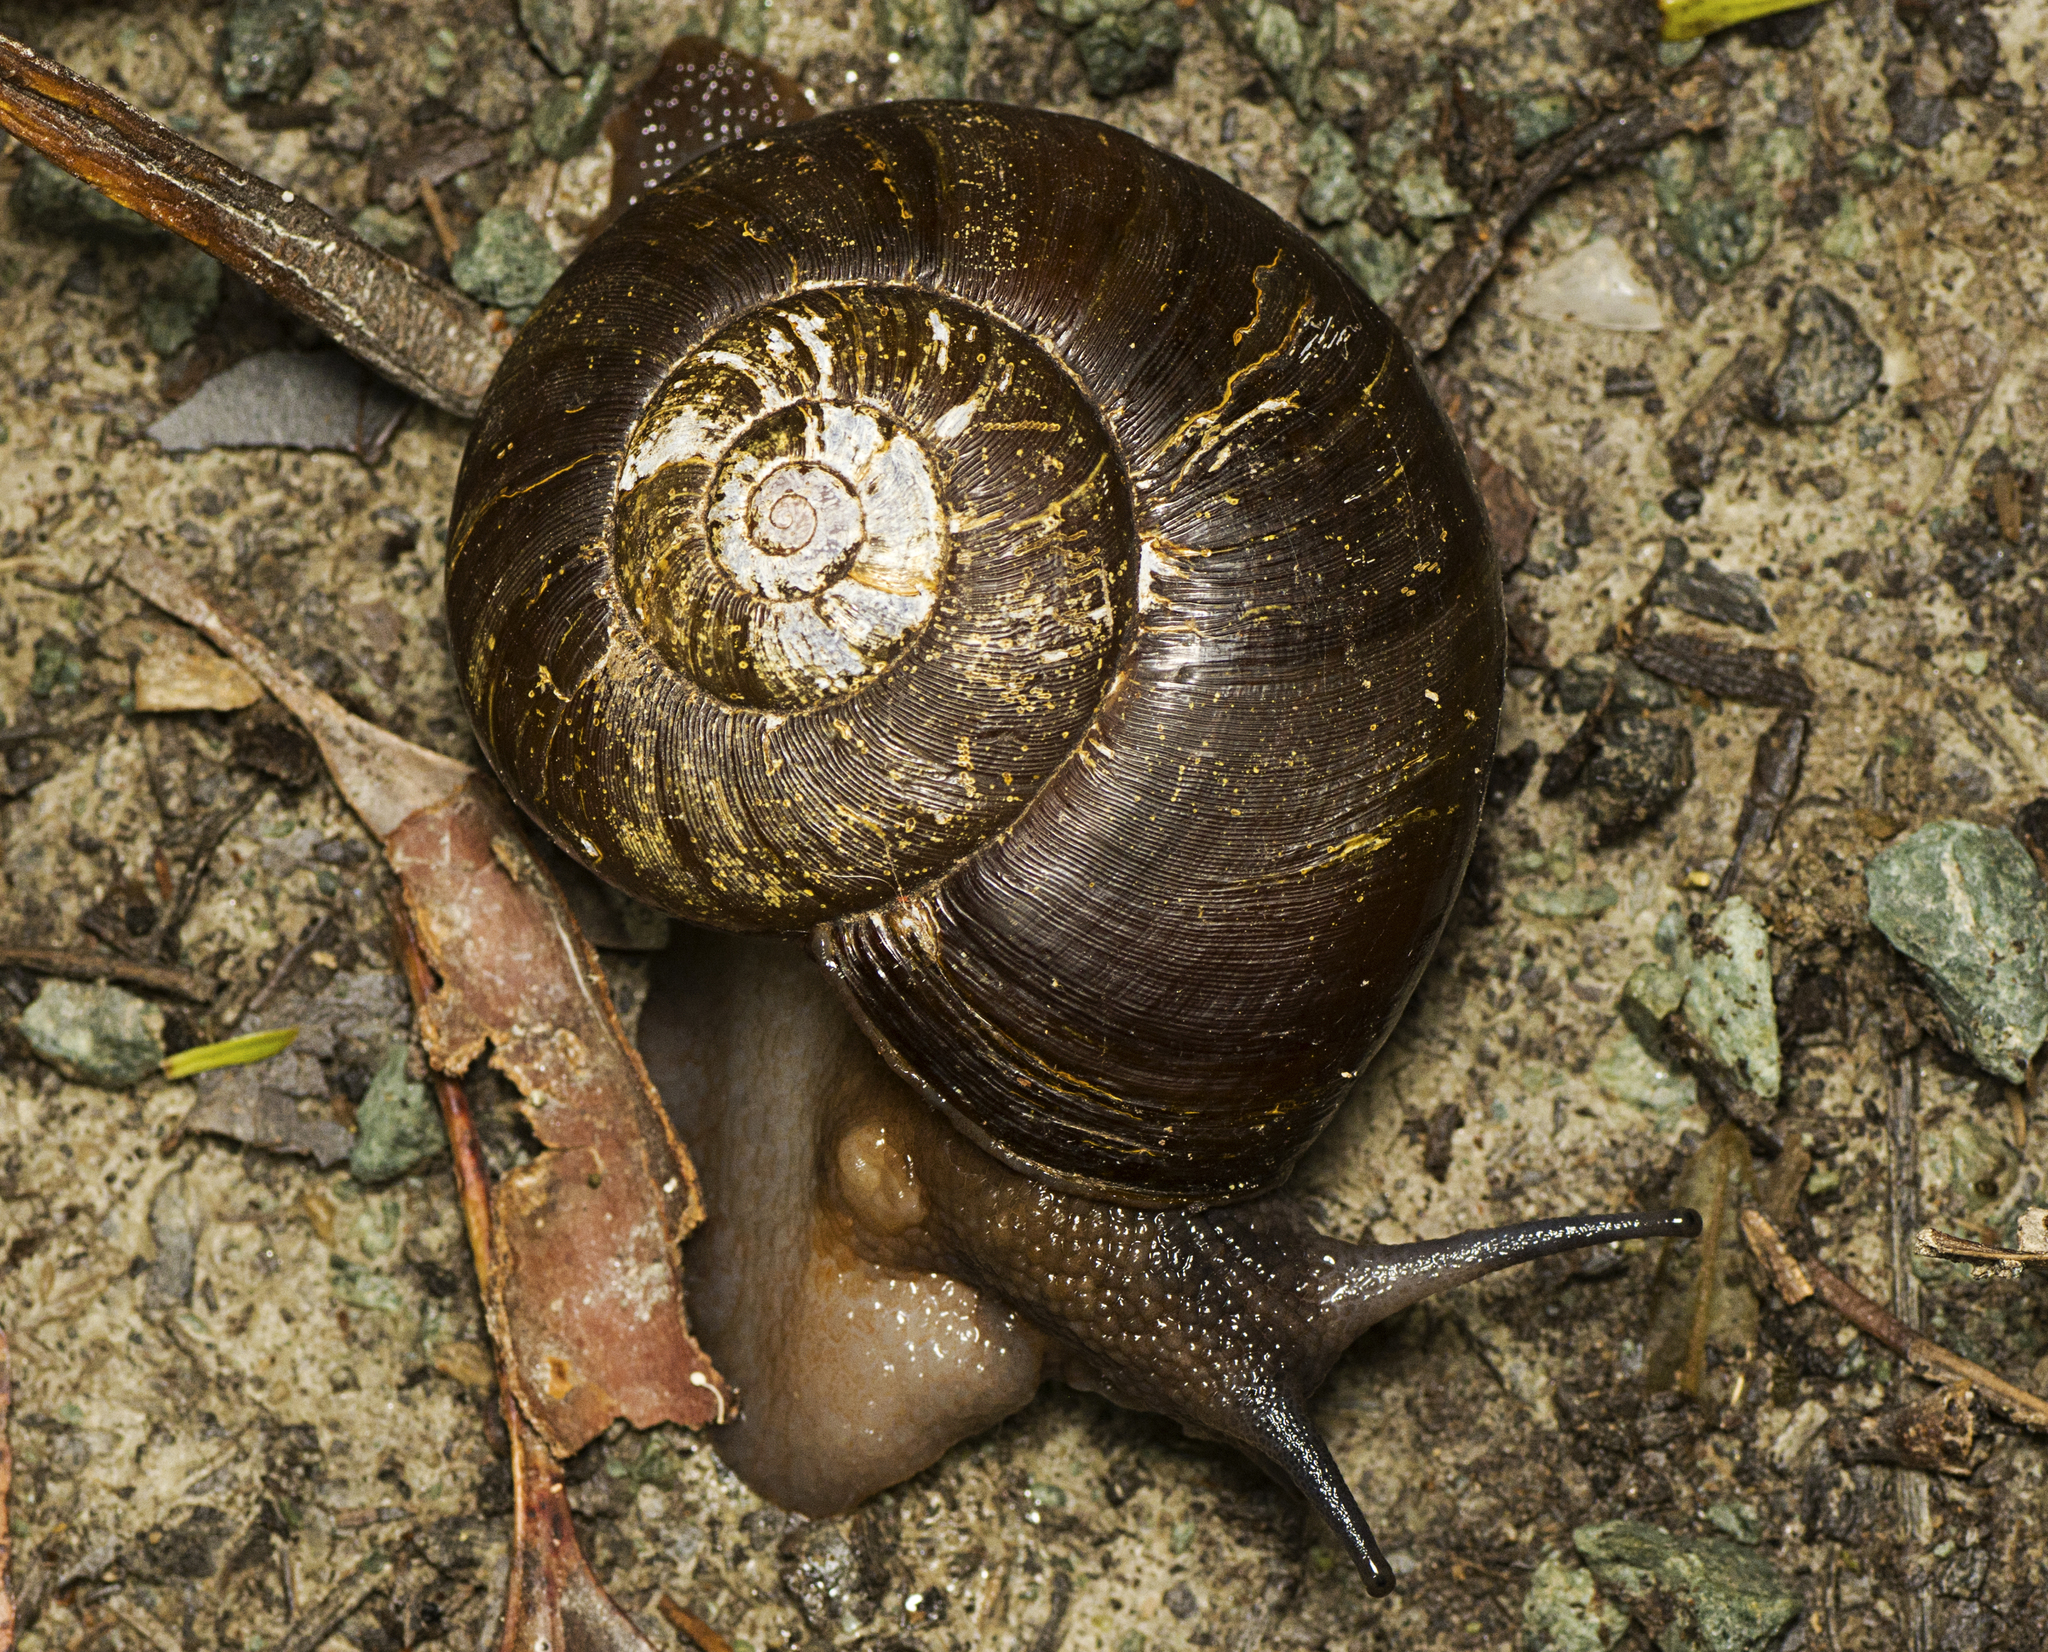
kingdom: Animalia
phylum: Mollusca
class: Gastropoda
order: Stylommatophora
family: Rhytididae
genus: Strangesta
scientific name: Strangesta maxima
